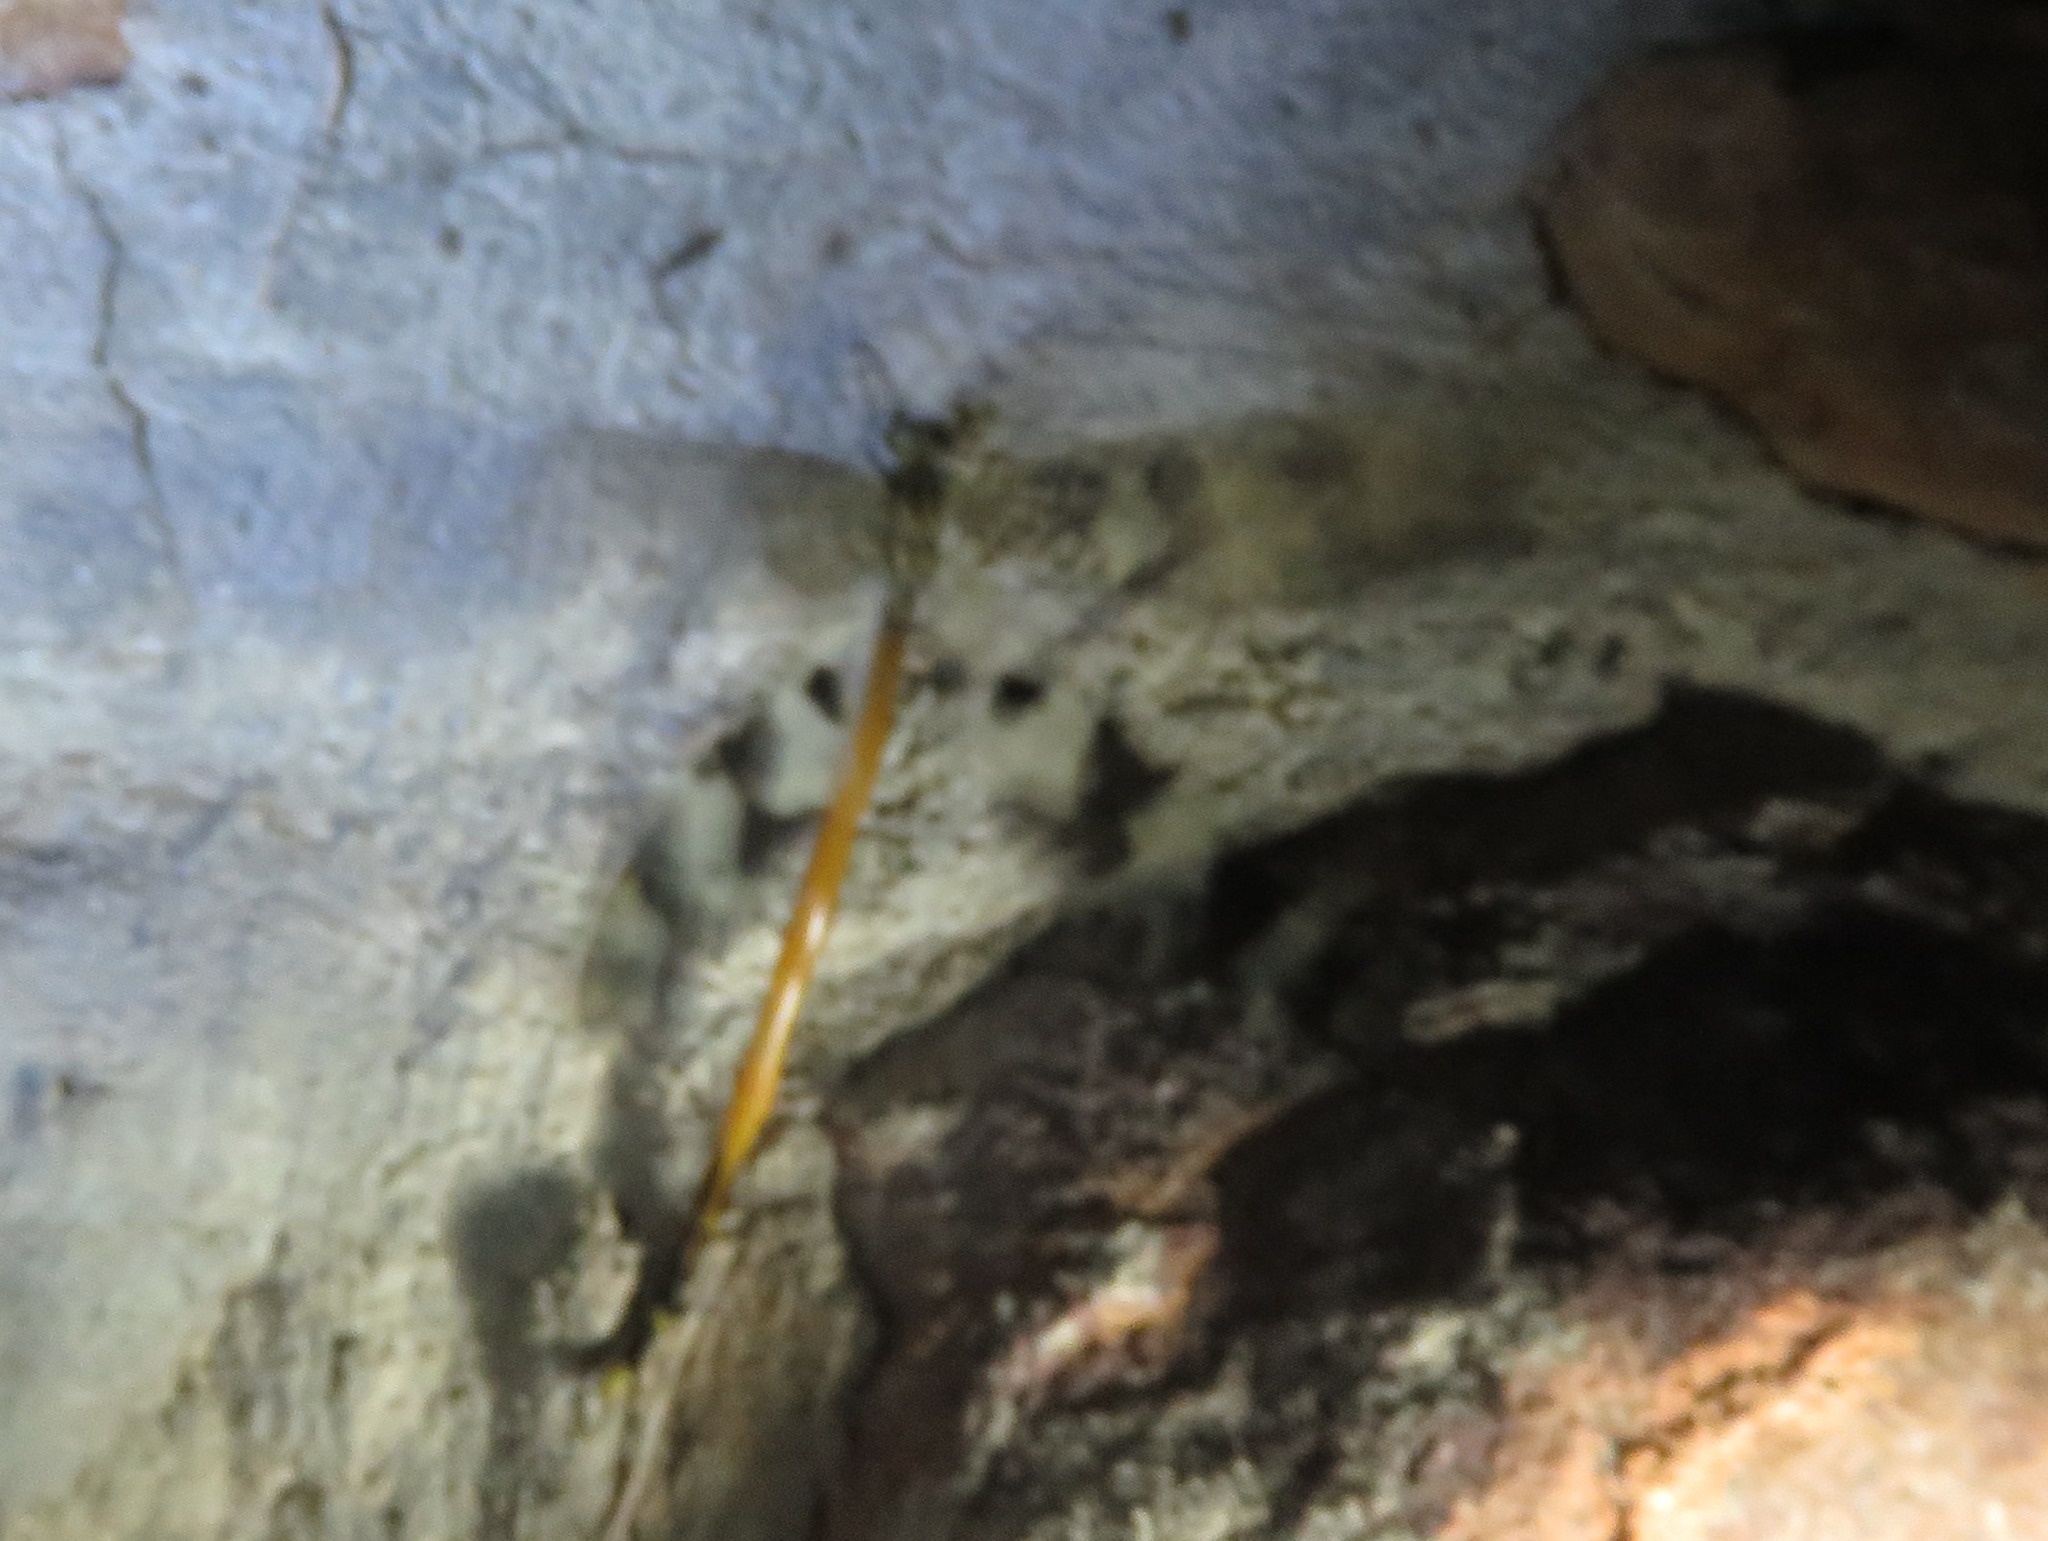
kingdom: Animalia
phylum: Arthropoda
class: Insecta
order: Neuroptera
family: Myrmeleontidae
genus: Palpares
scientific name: Palpares speciosus
